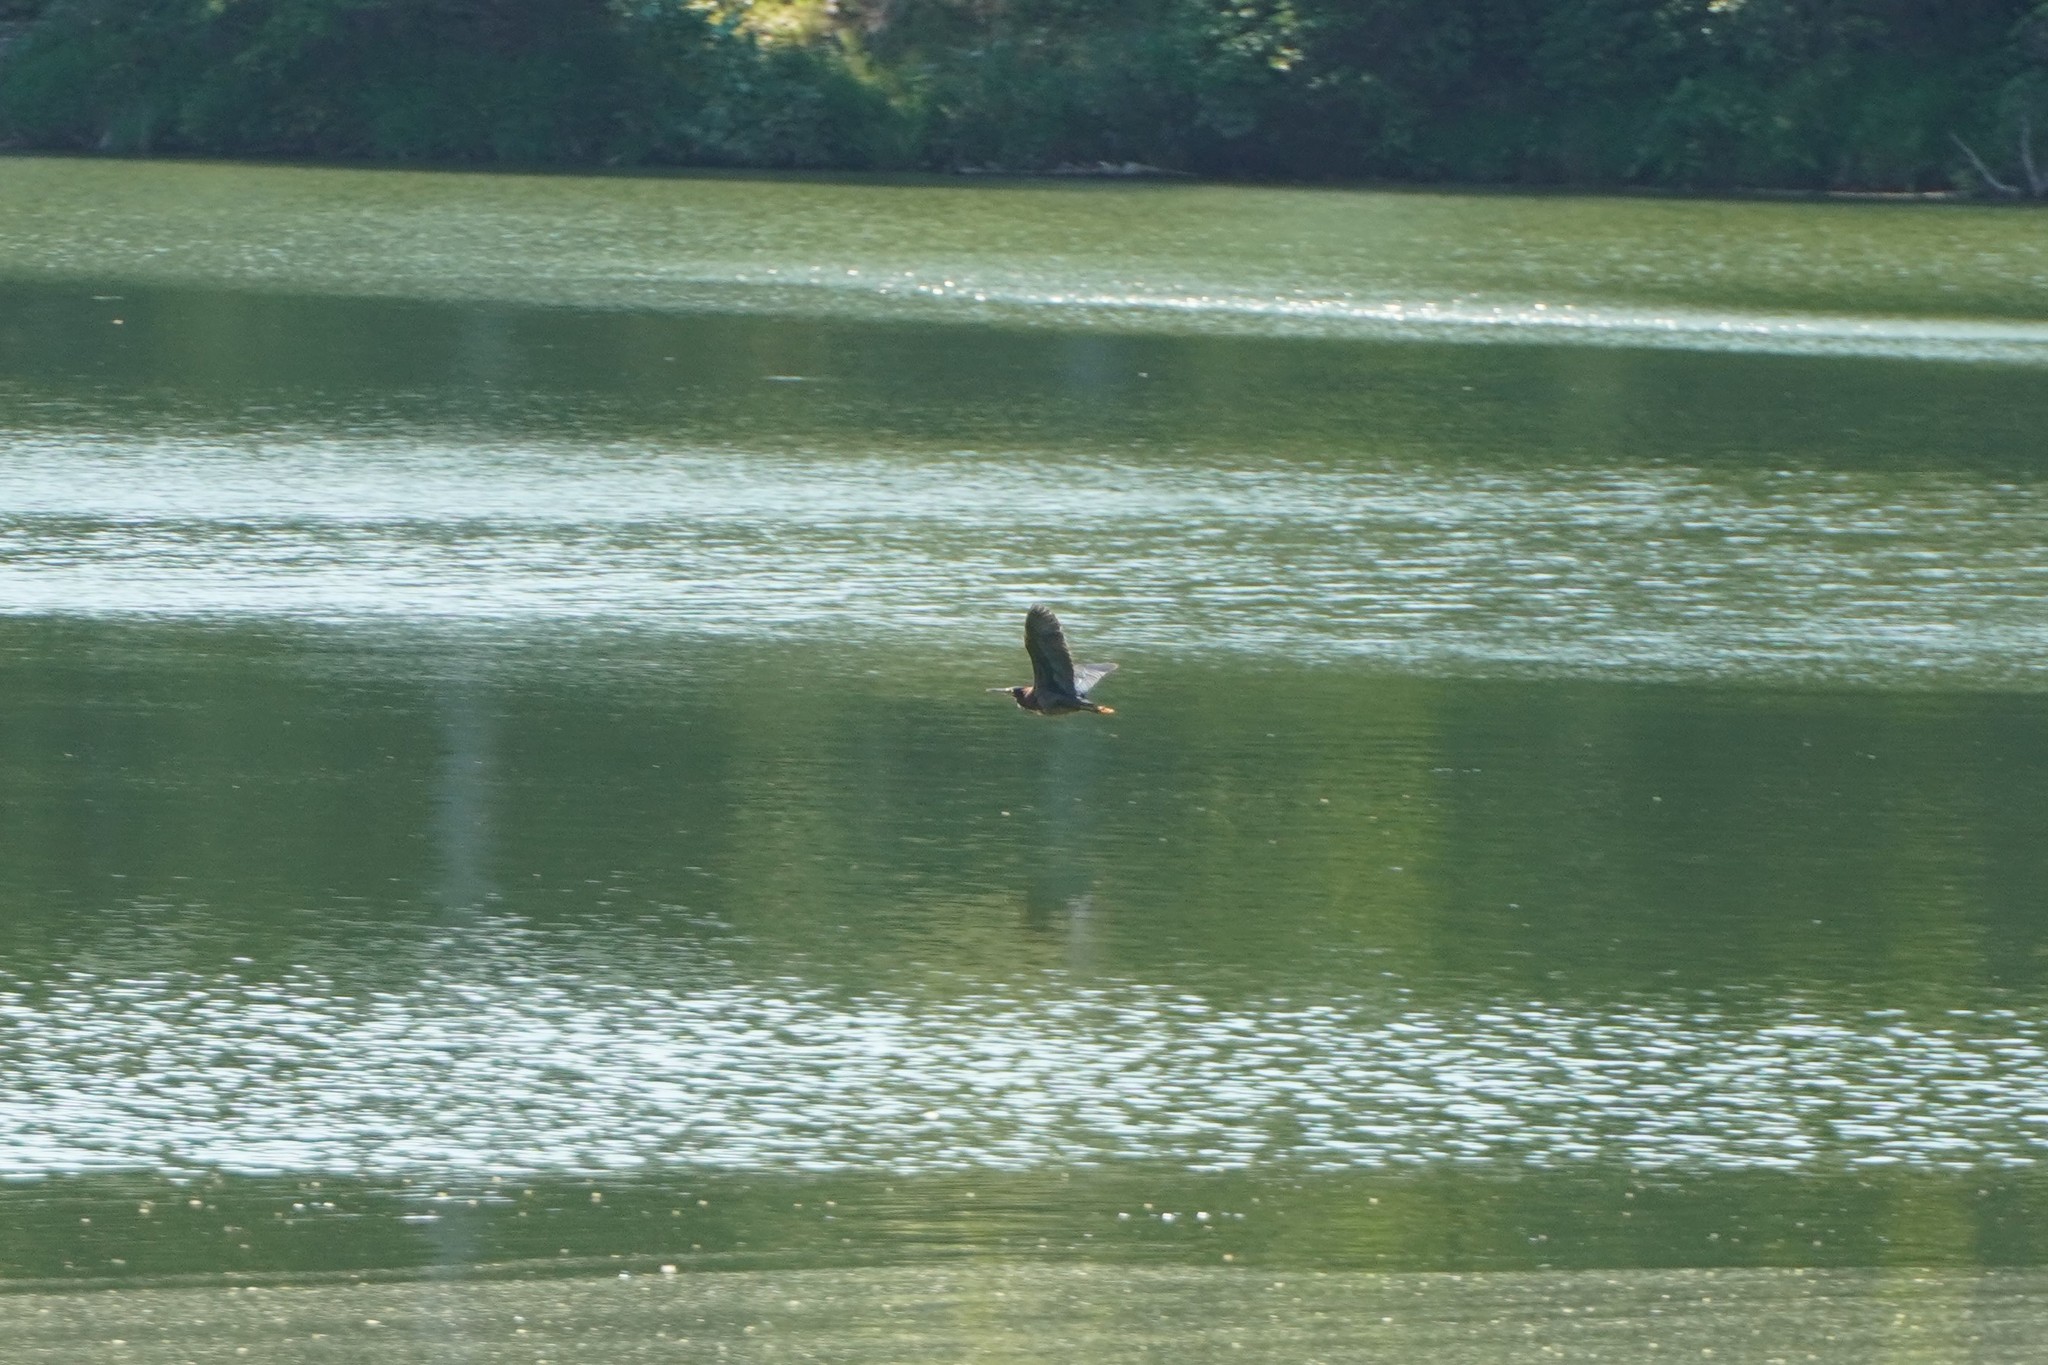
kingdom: Animalia
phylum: Chordata
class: Aves
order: Pelecaniformes
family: Ardeidae
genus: Butorides
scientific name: Butorides virescens
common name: Green heron
